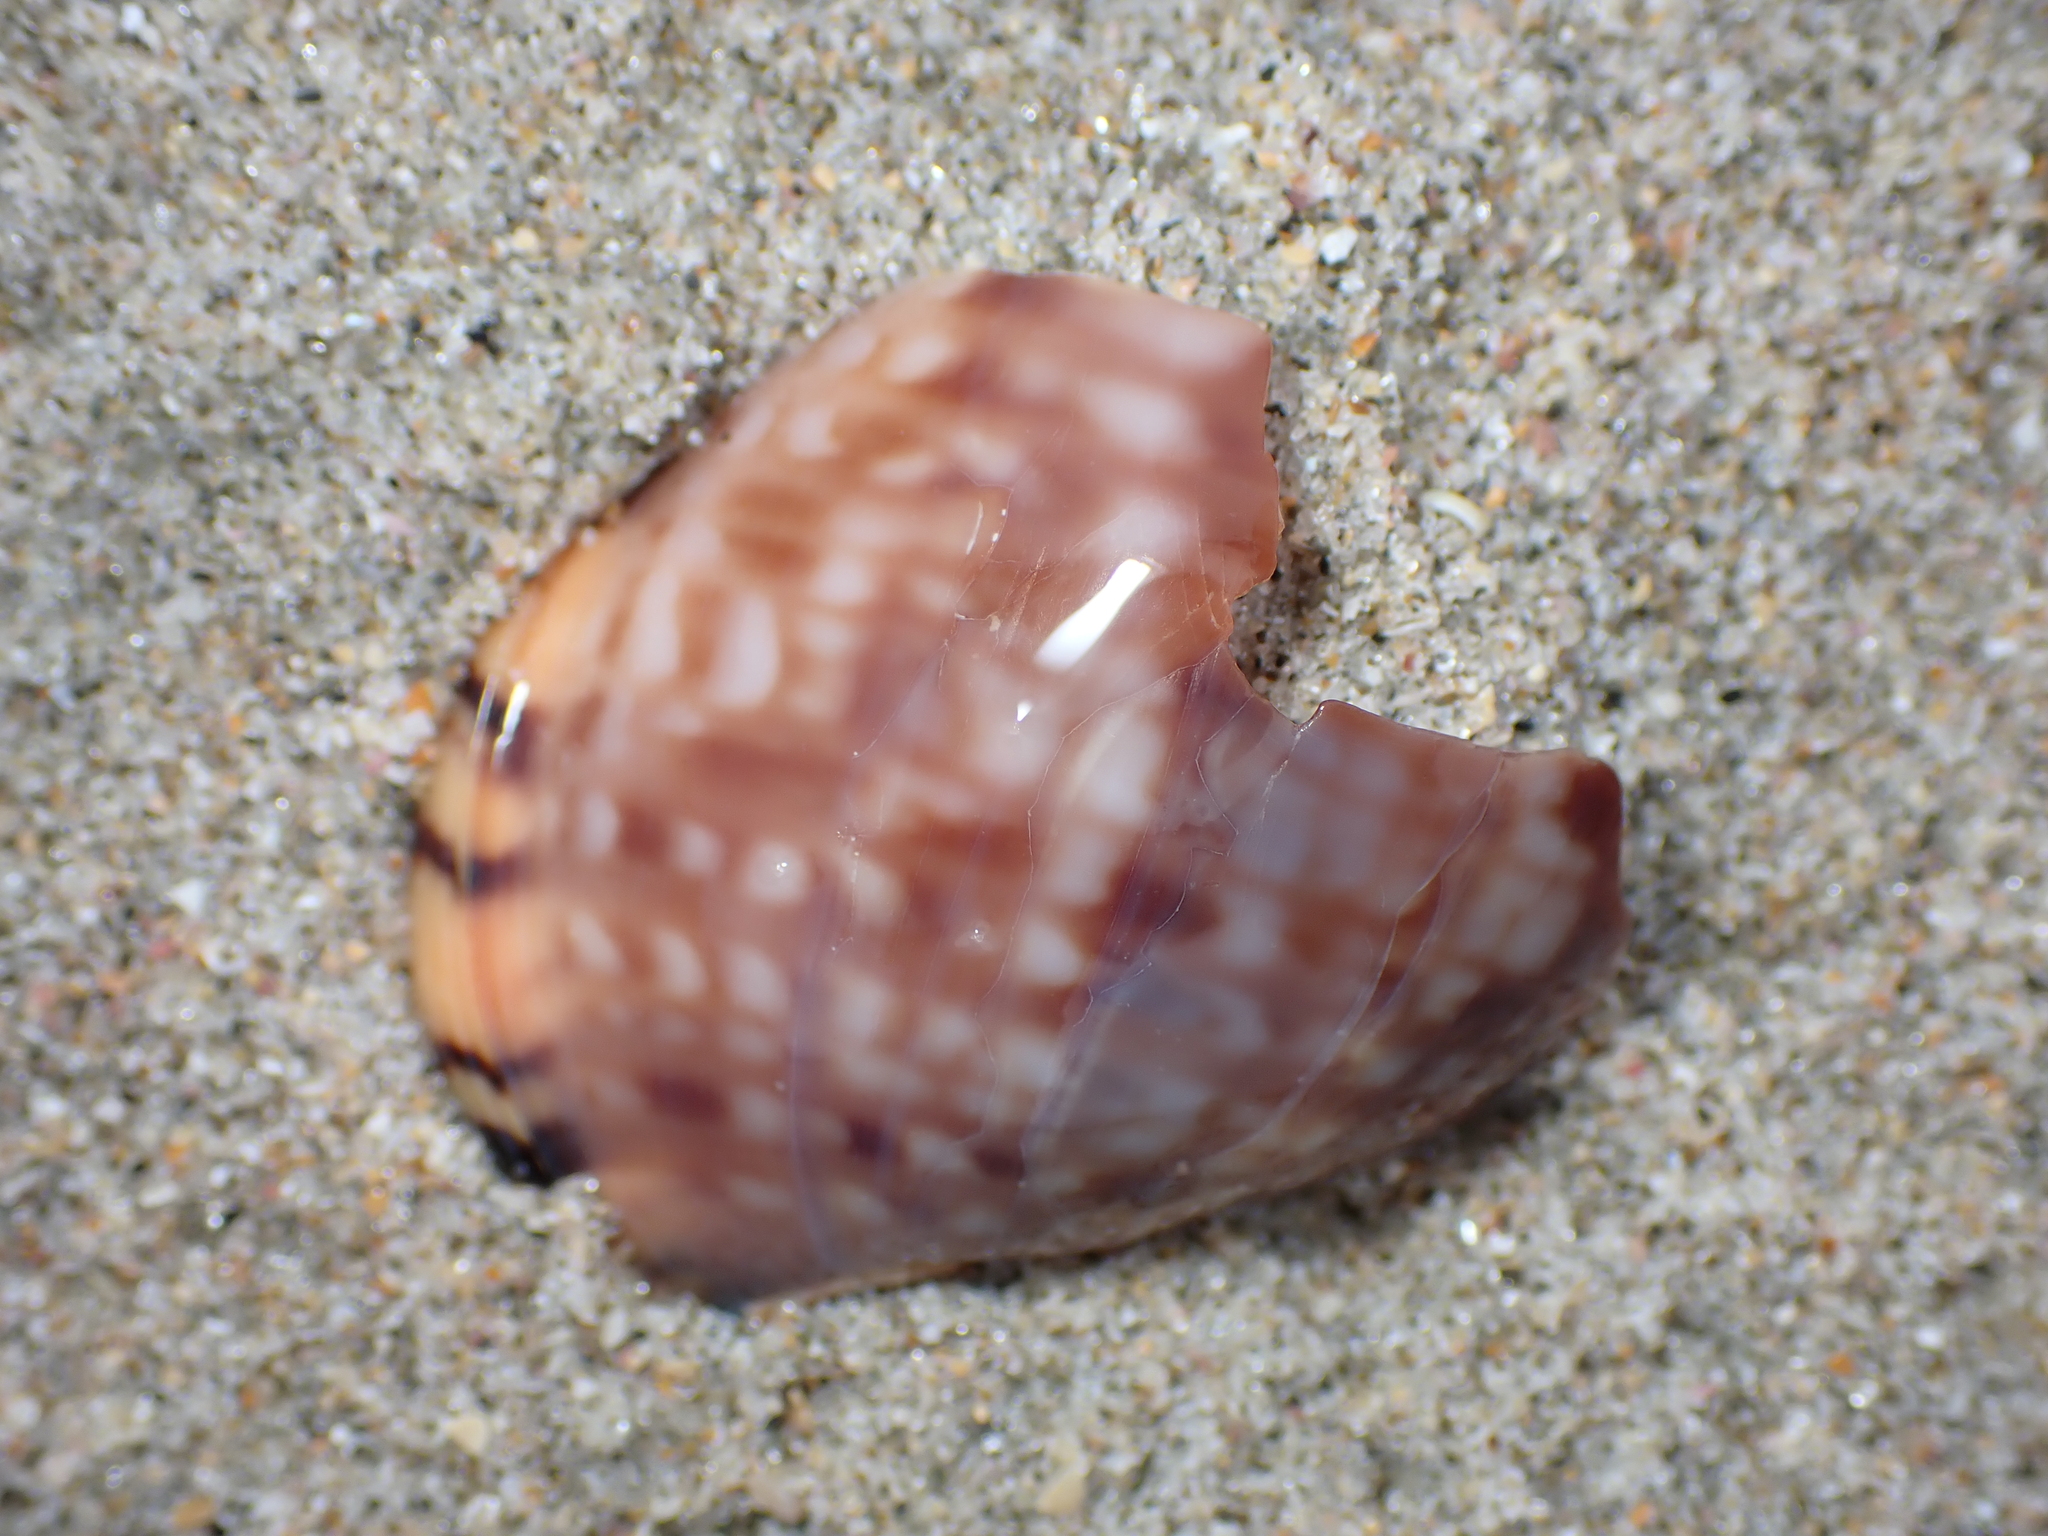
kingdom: Animalia
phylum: Mollusca
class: Gastropoda
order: Littorinimorpha
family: Cassidae
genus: Semicassis
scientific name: Semicassis labiata
